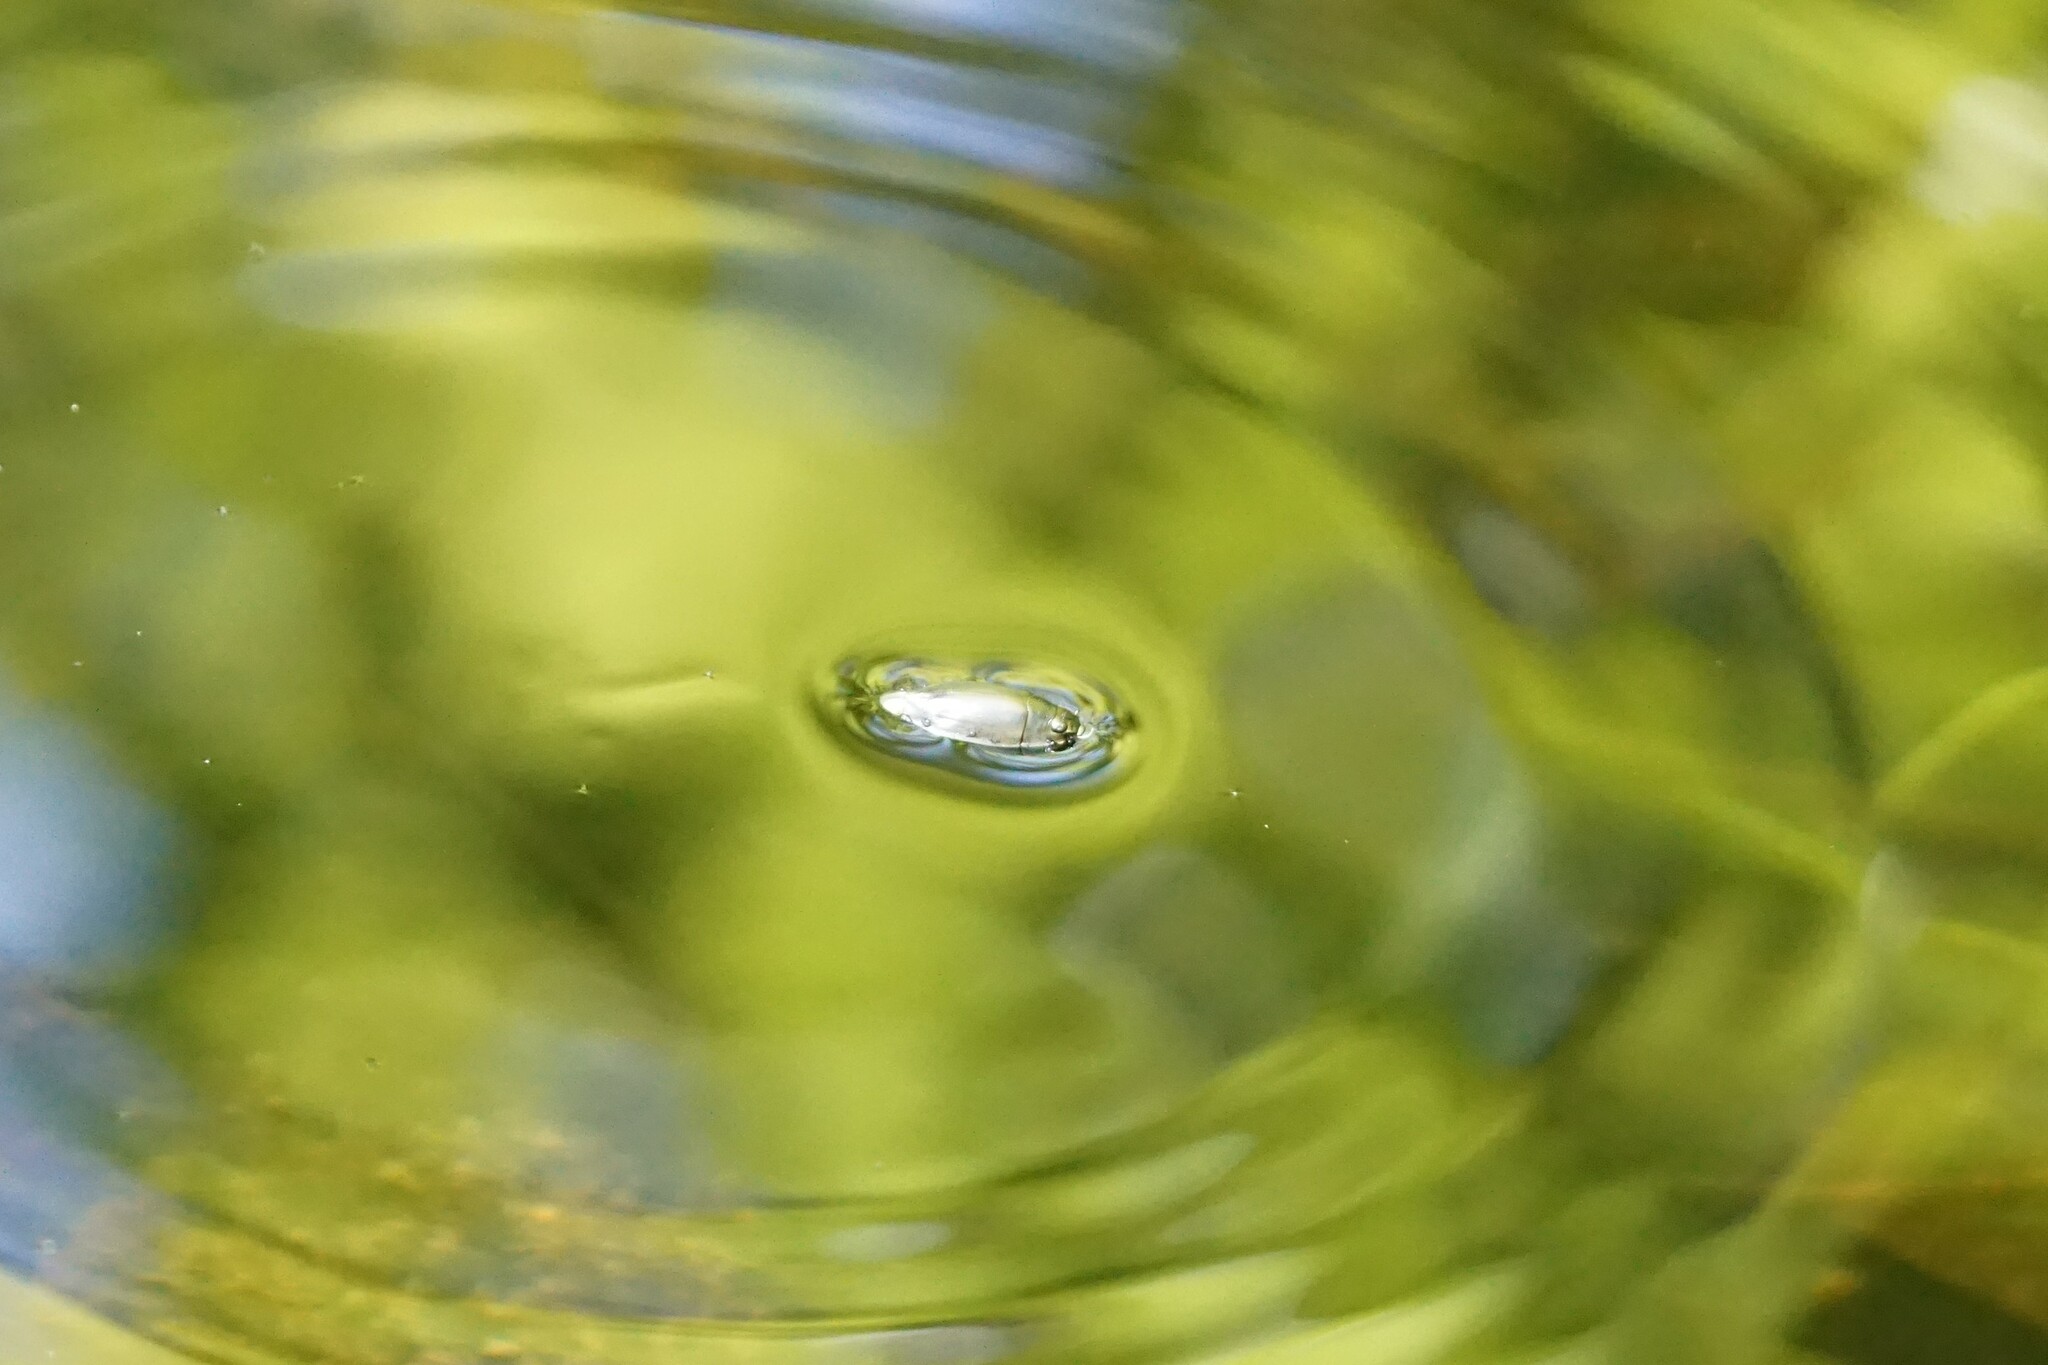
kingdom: Animalia
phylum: Arthropoda
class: Insecta
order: Coleoptera
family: Gyrinidae
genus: Dineutus
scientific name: Dineutus
